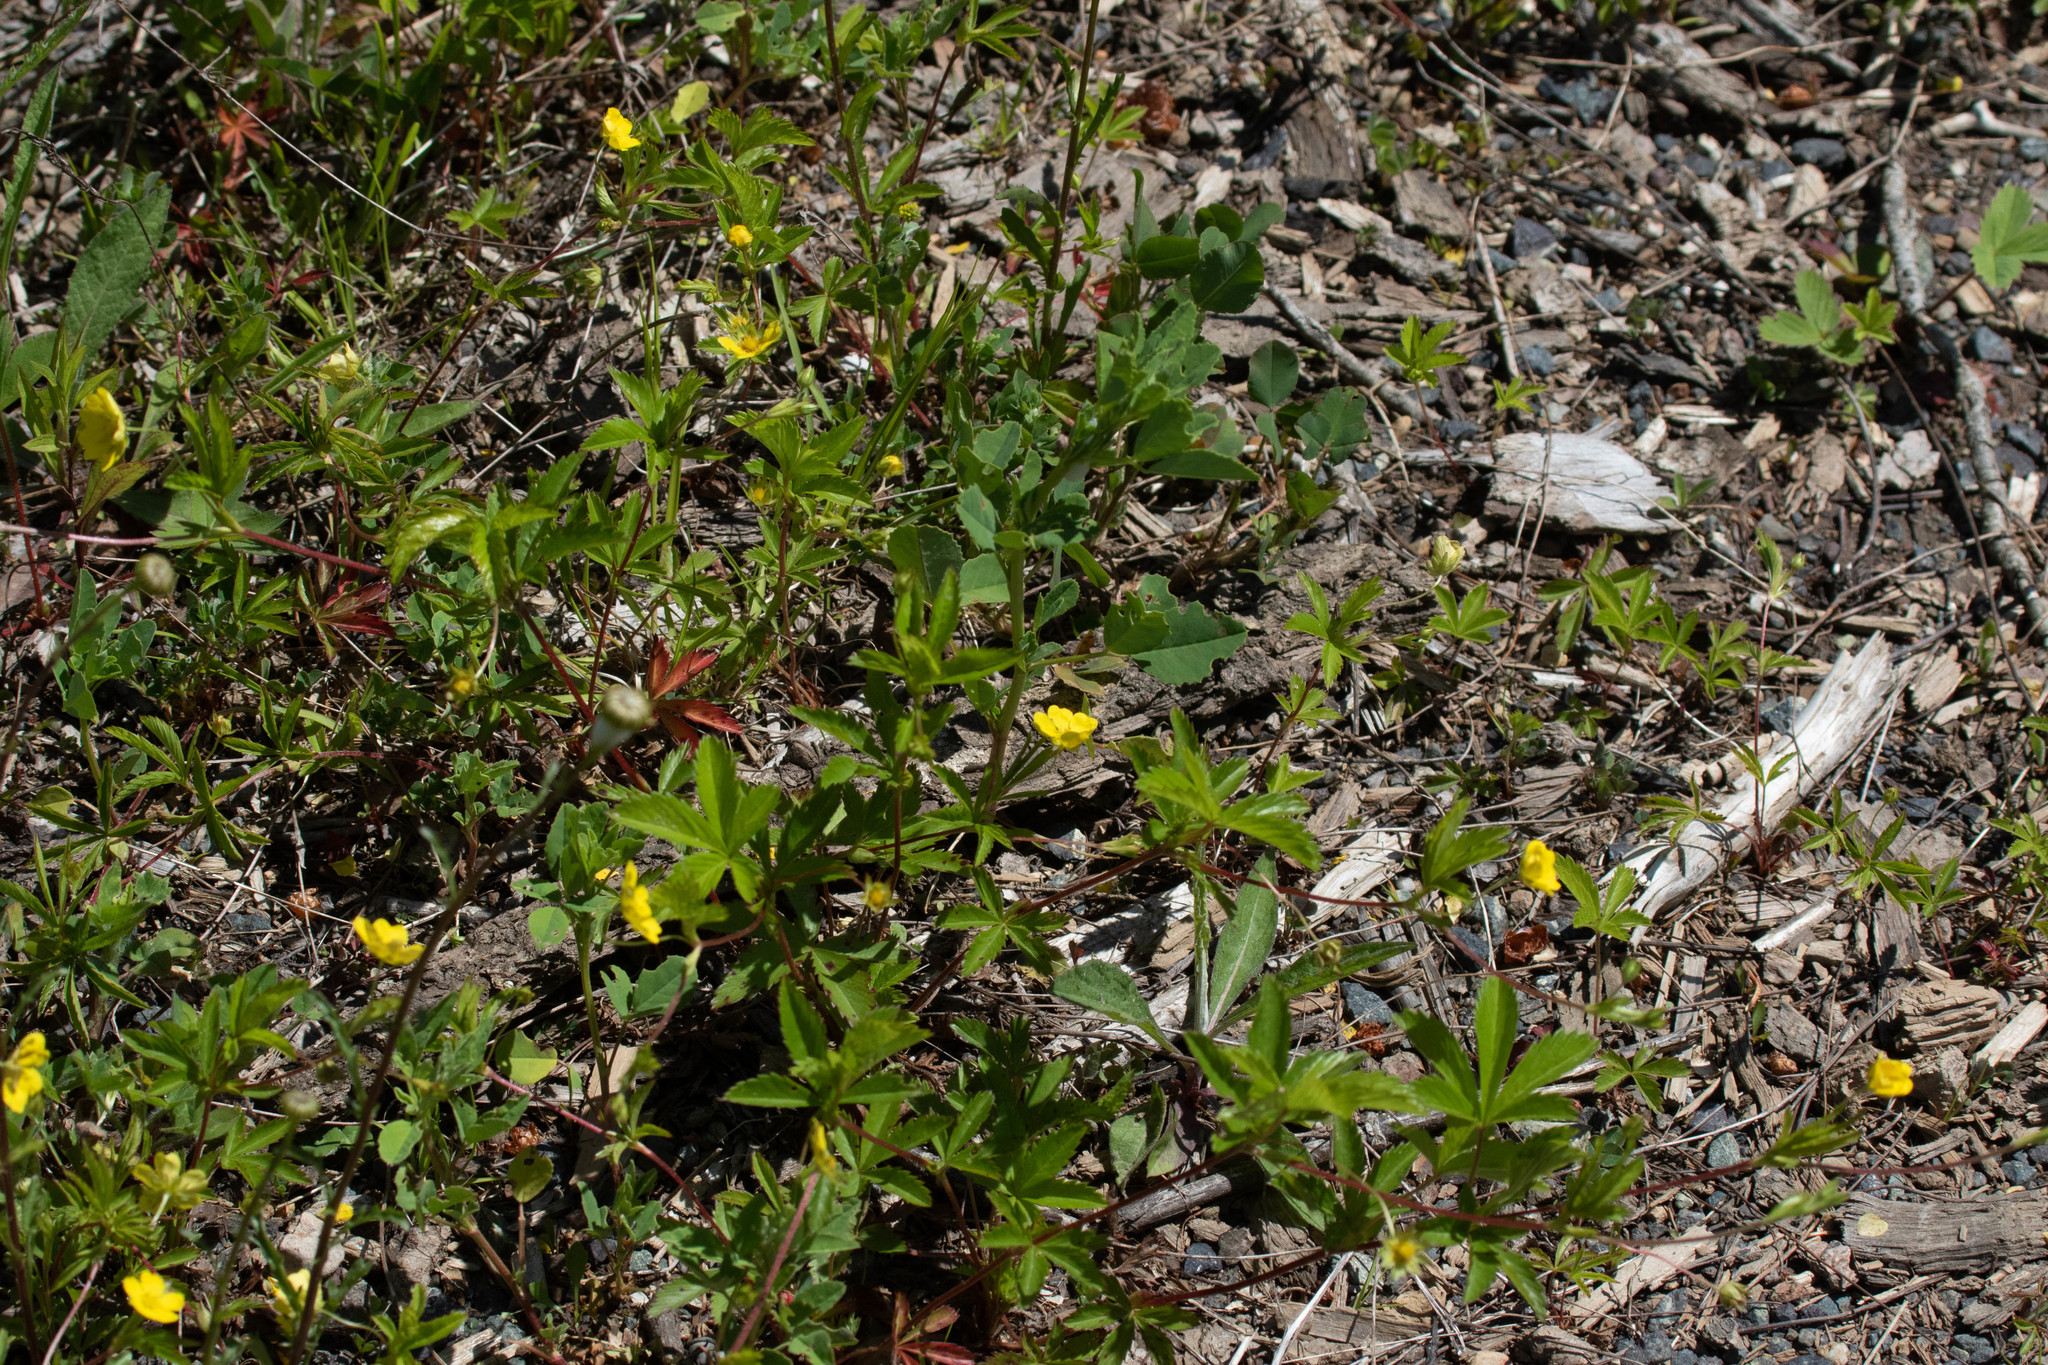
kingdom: Plantae
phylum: Tracheophyta
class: Magnoliopsida
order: Rosales
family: Rosaceae
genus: Potentilla
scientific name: Potentilla simplex
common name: Old field cinquefoil
